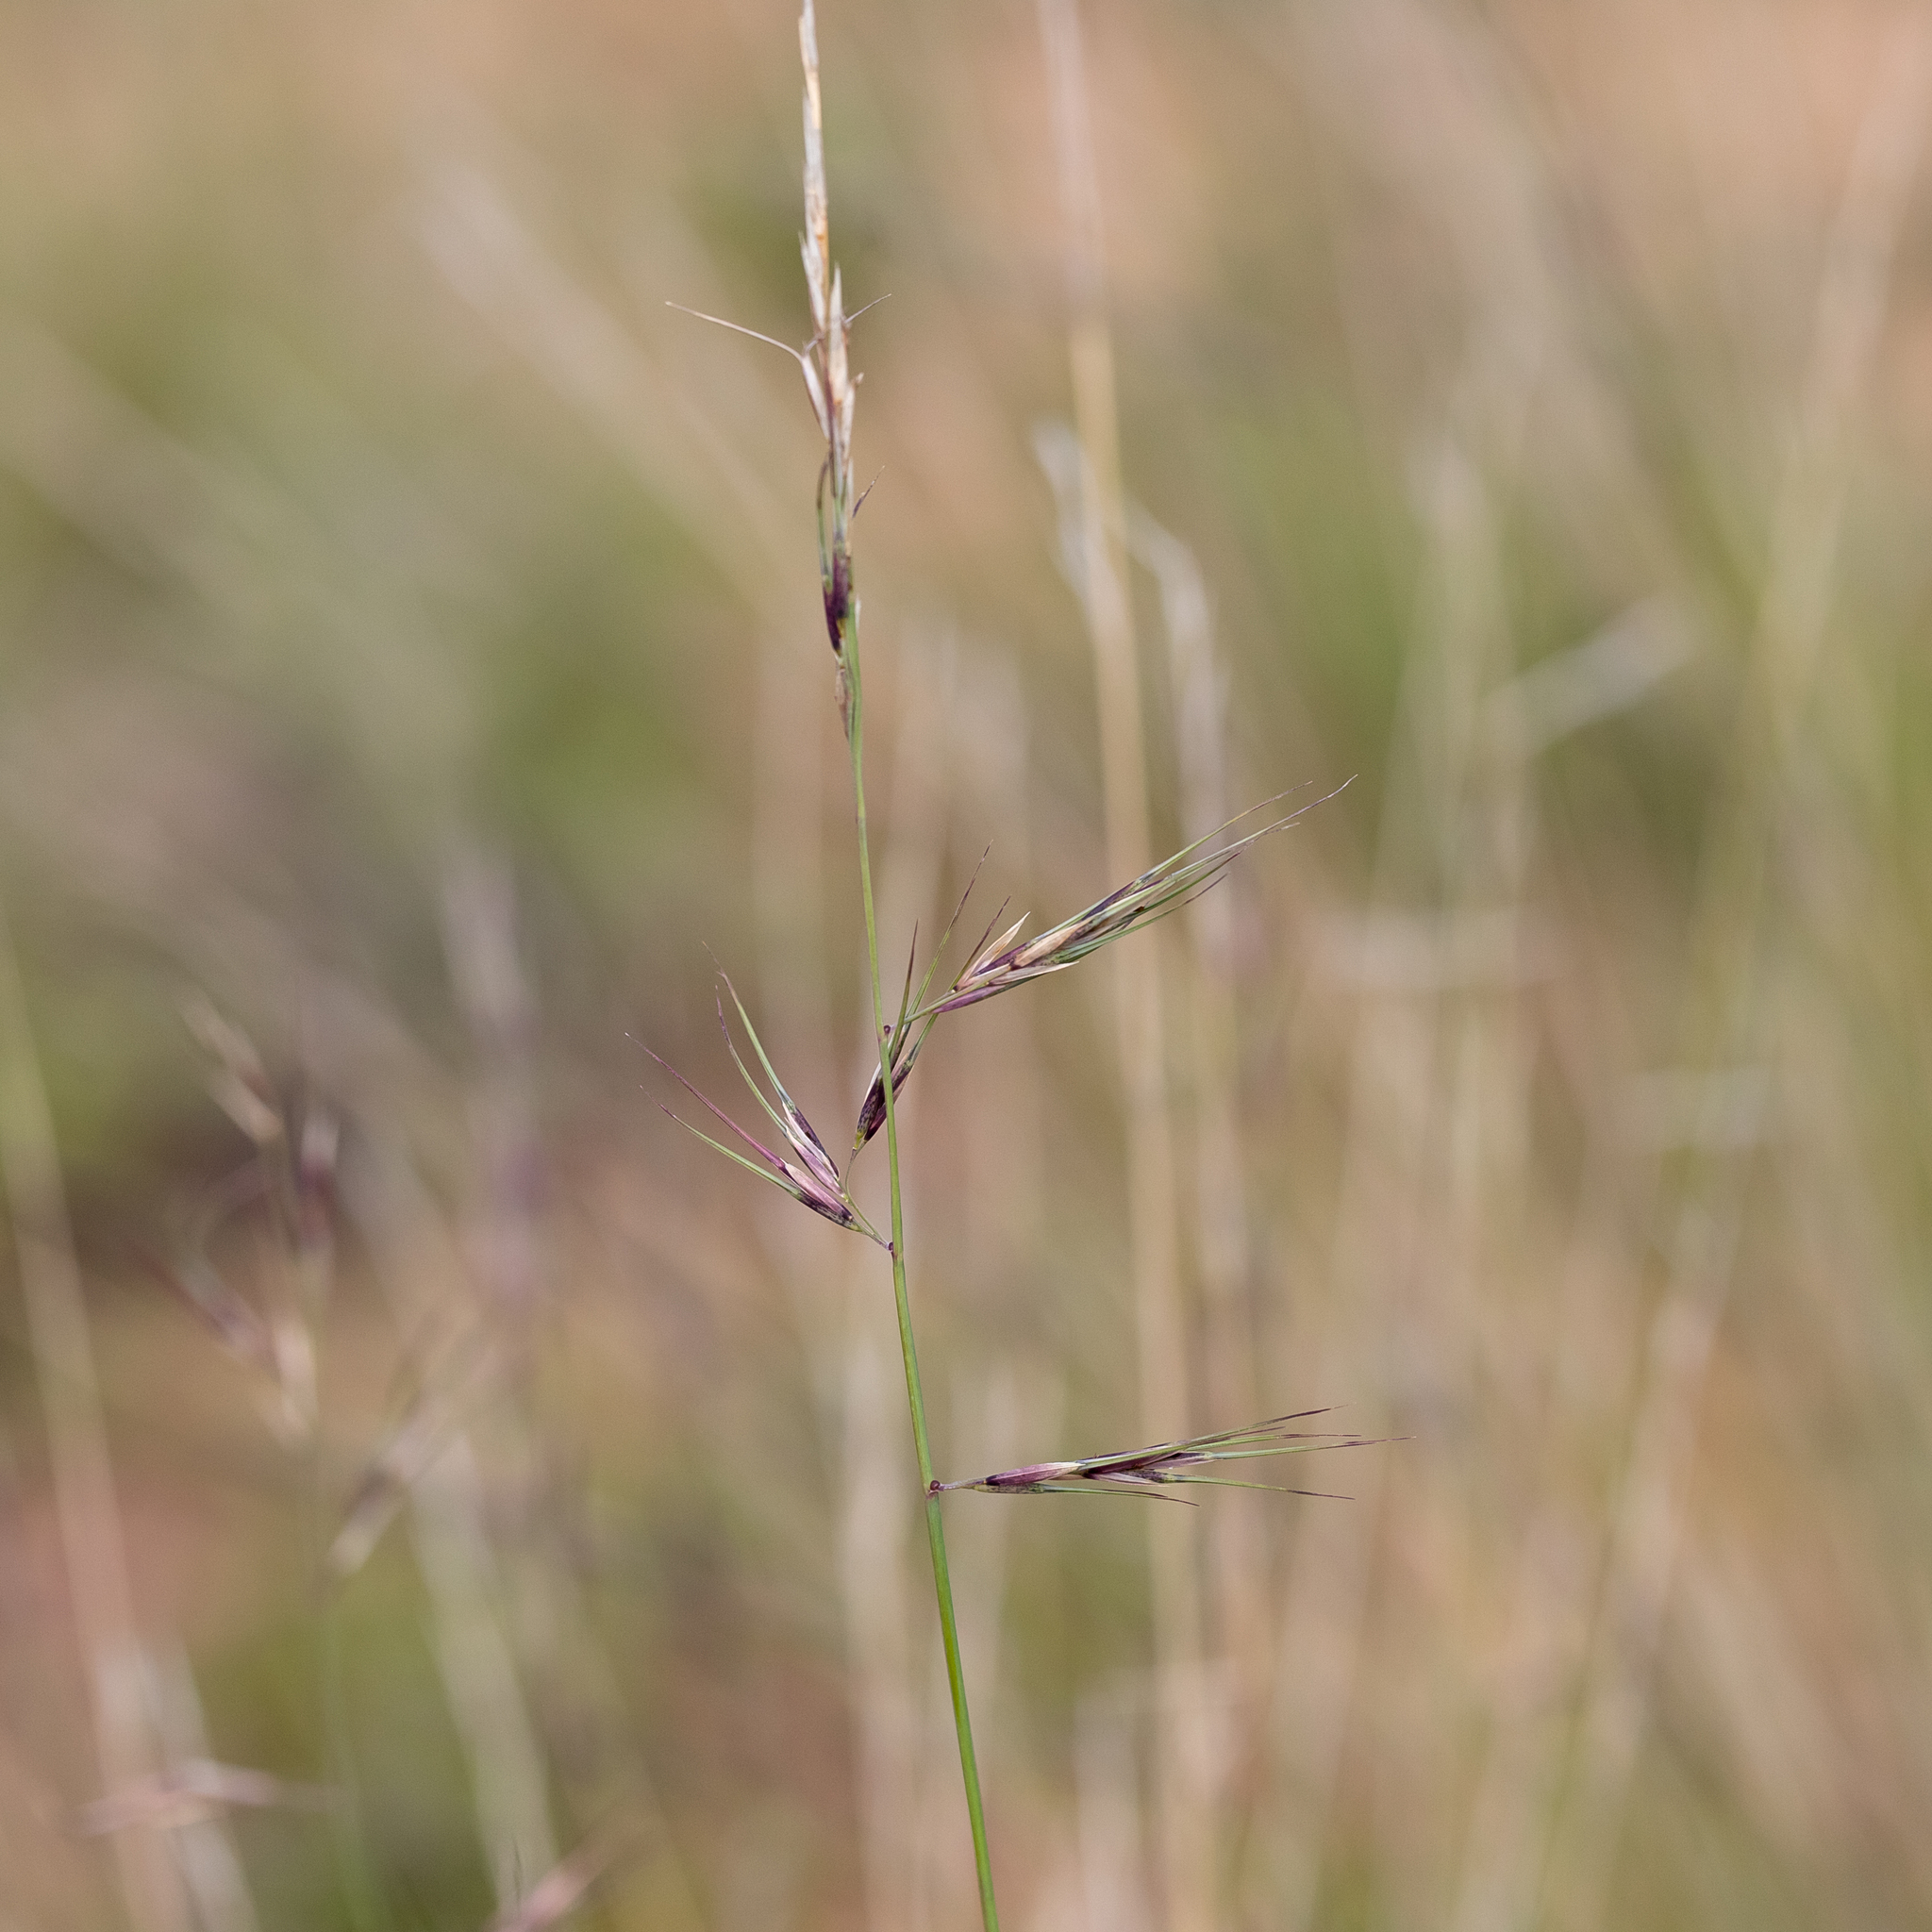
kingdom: Plantae
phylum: Tracheophyta
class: Liliopsida
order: Poales
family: Poaceae
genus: Aristida
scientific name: Aristida jerichoensis
